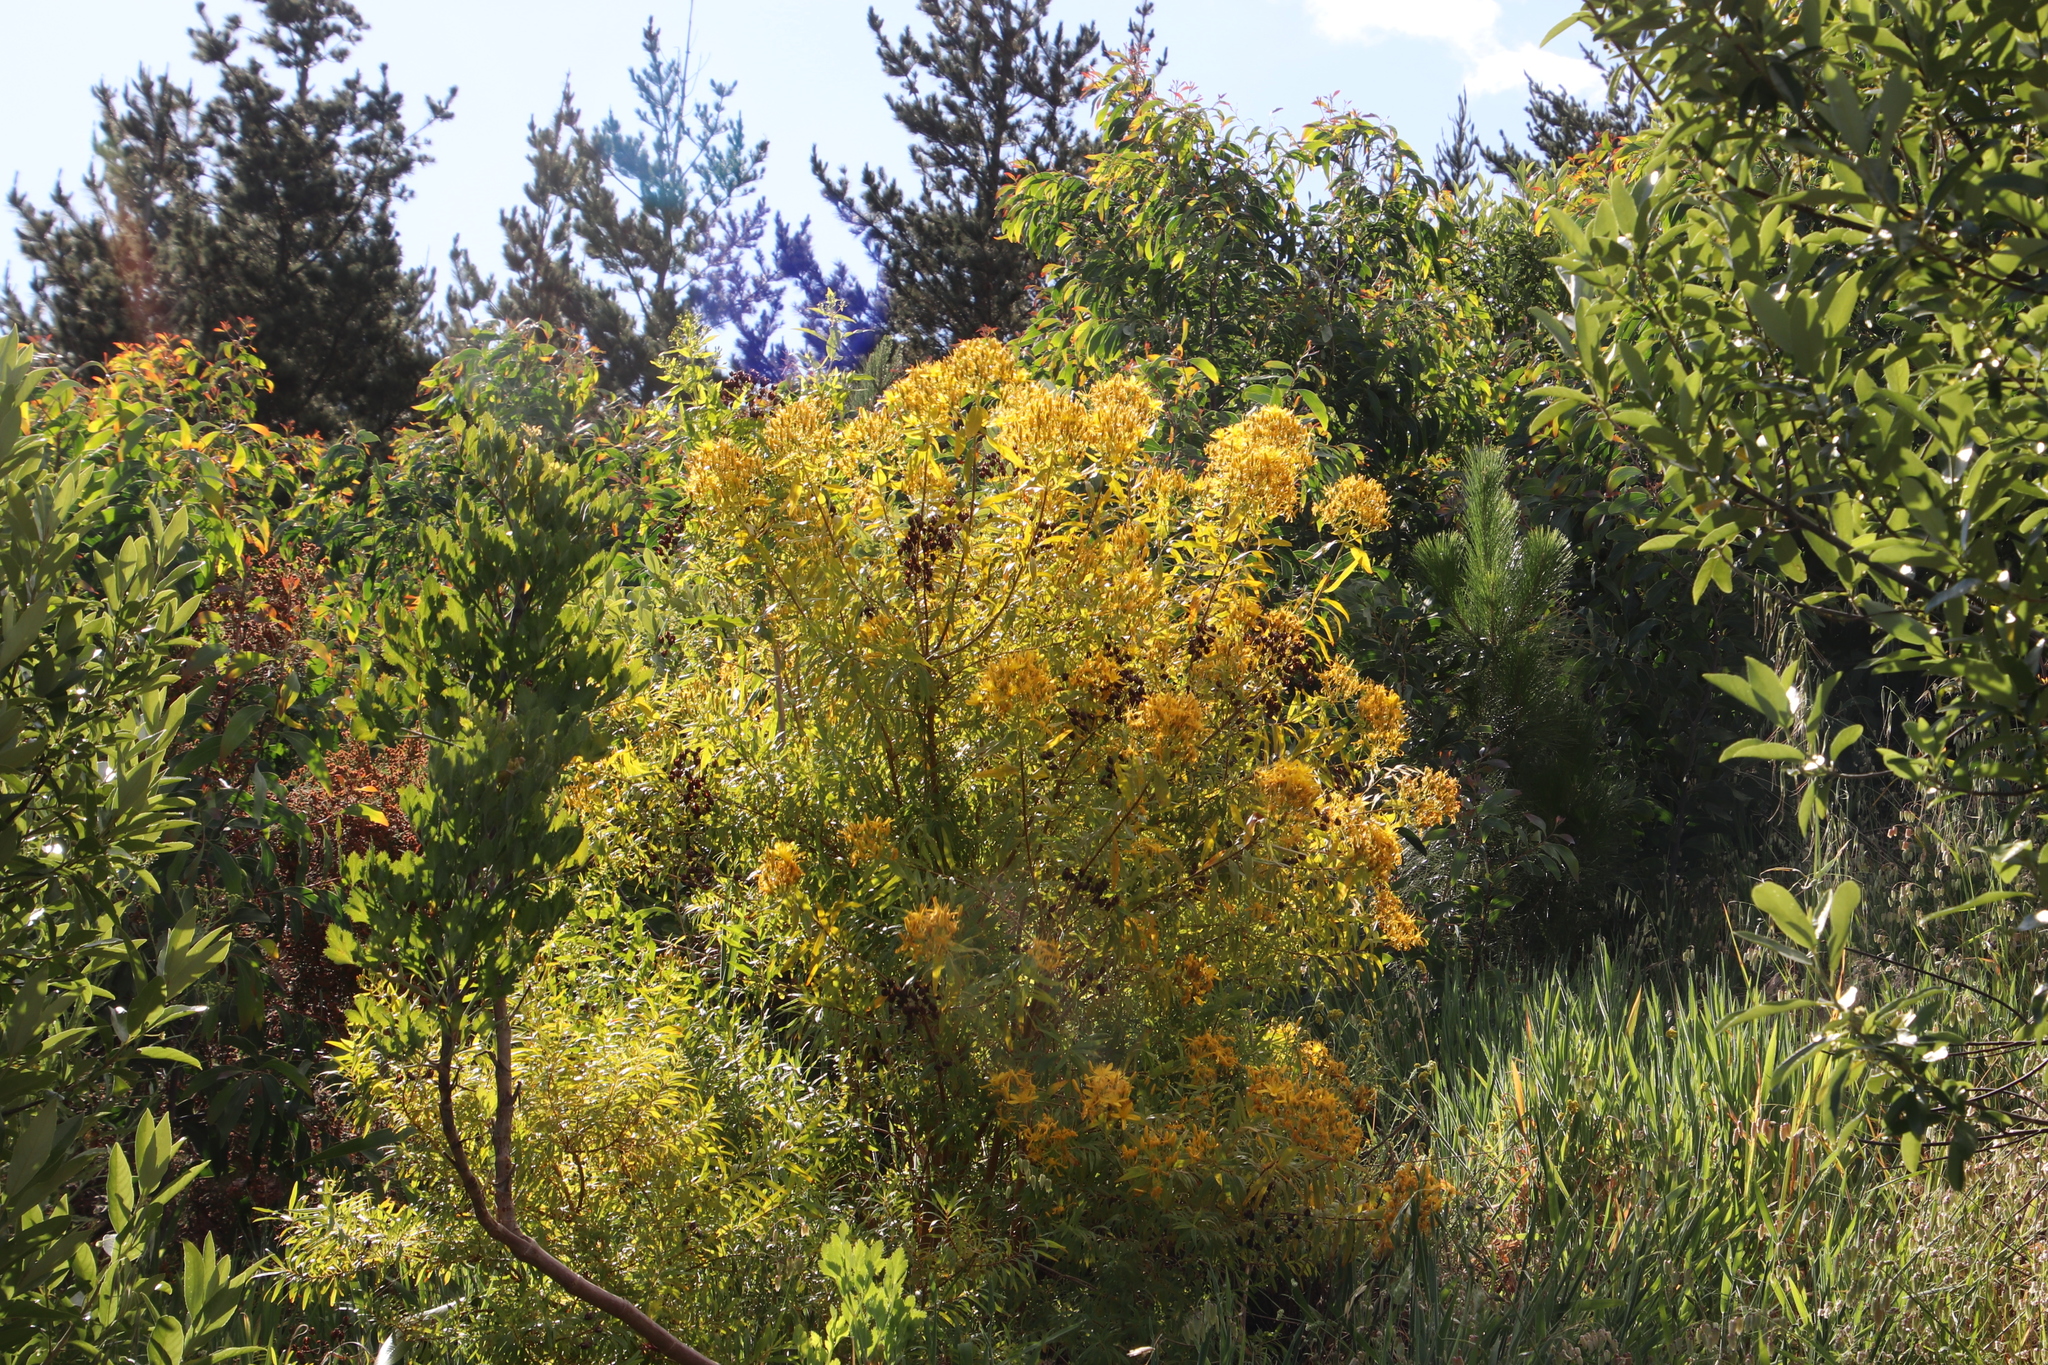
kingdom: Plantae
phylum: Tracheophyta
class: Magnoliopsida
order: Malpighiales
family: Hypericaceae
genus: Hypericum
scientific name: Hypericum canariense
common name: Canary island st. johnswort
